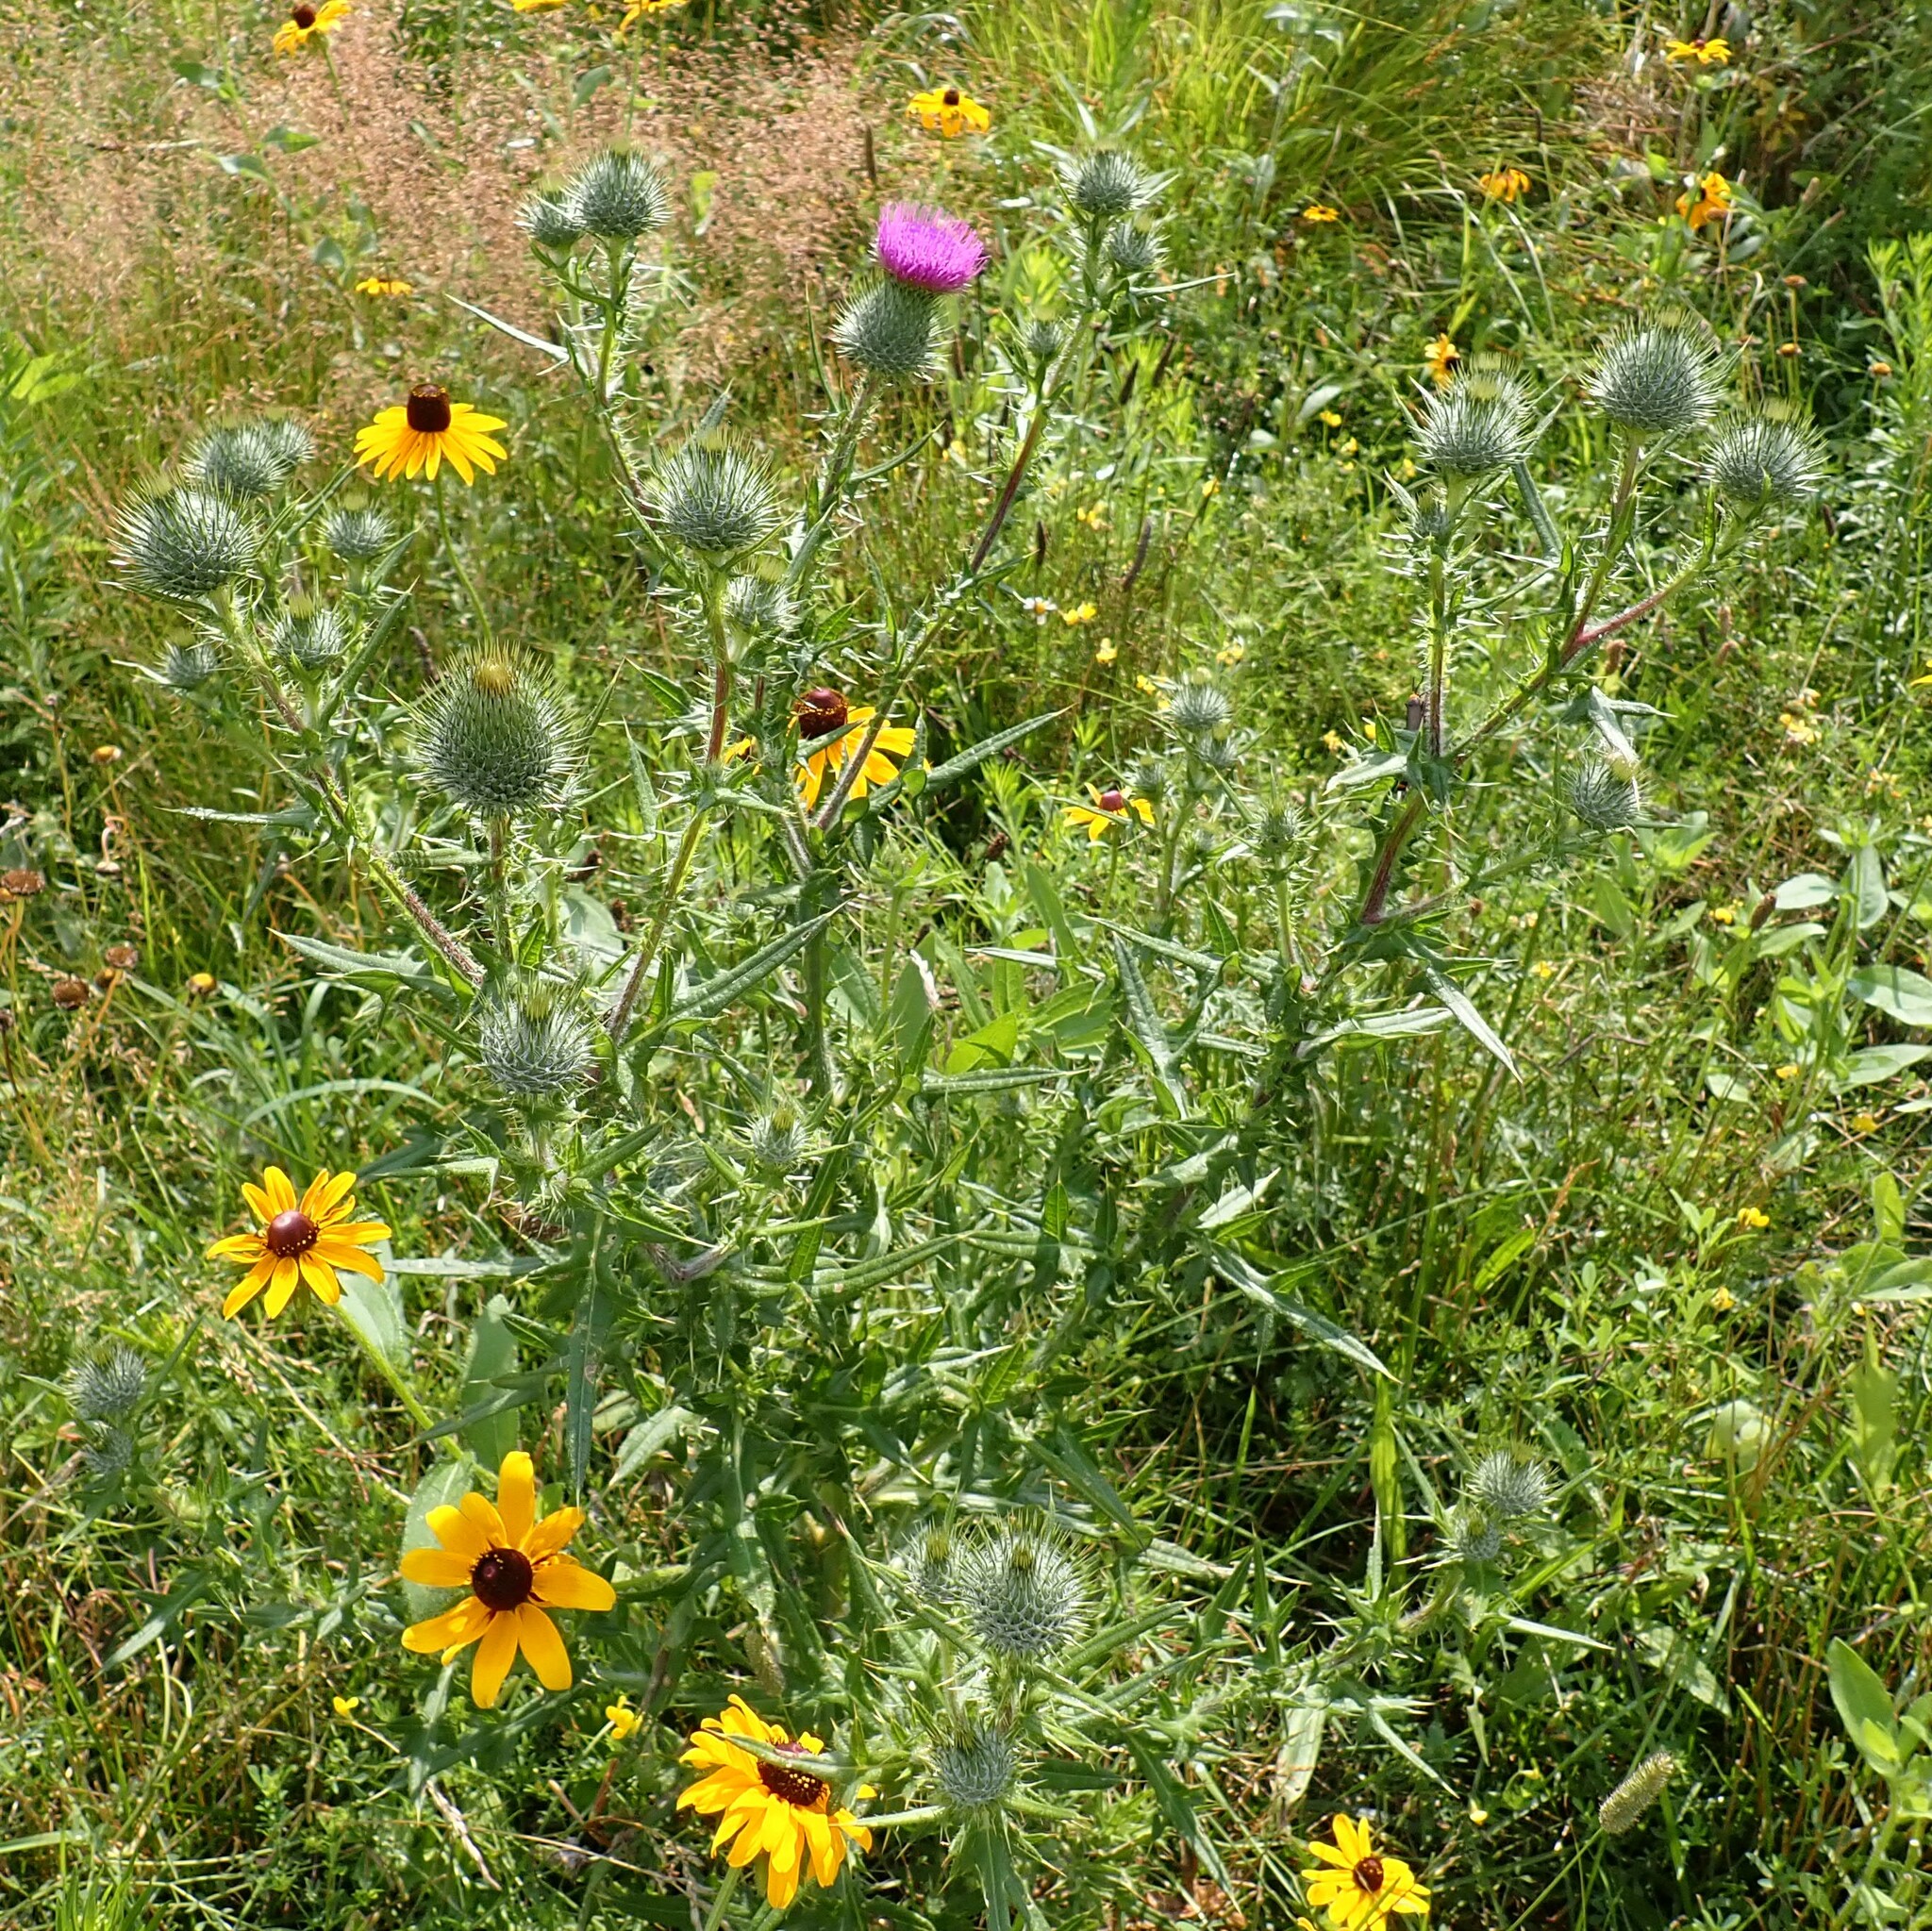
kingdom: Plantae
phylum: Tracheophyta
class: Magnoliopsida
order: Asterales
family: Asteraceae
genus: Cirsium
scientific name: Cirsium vulgare
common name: Bull thistle
